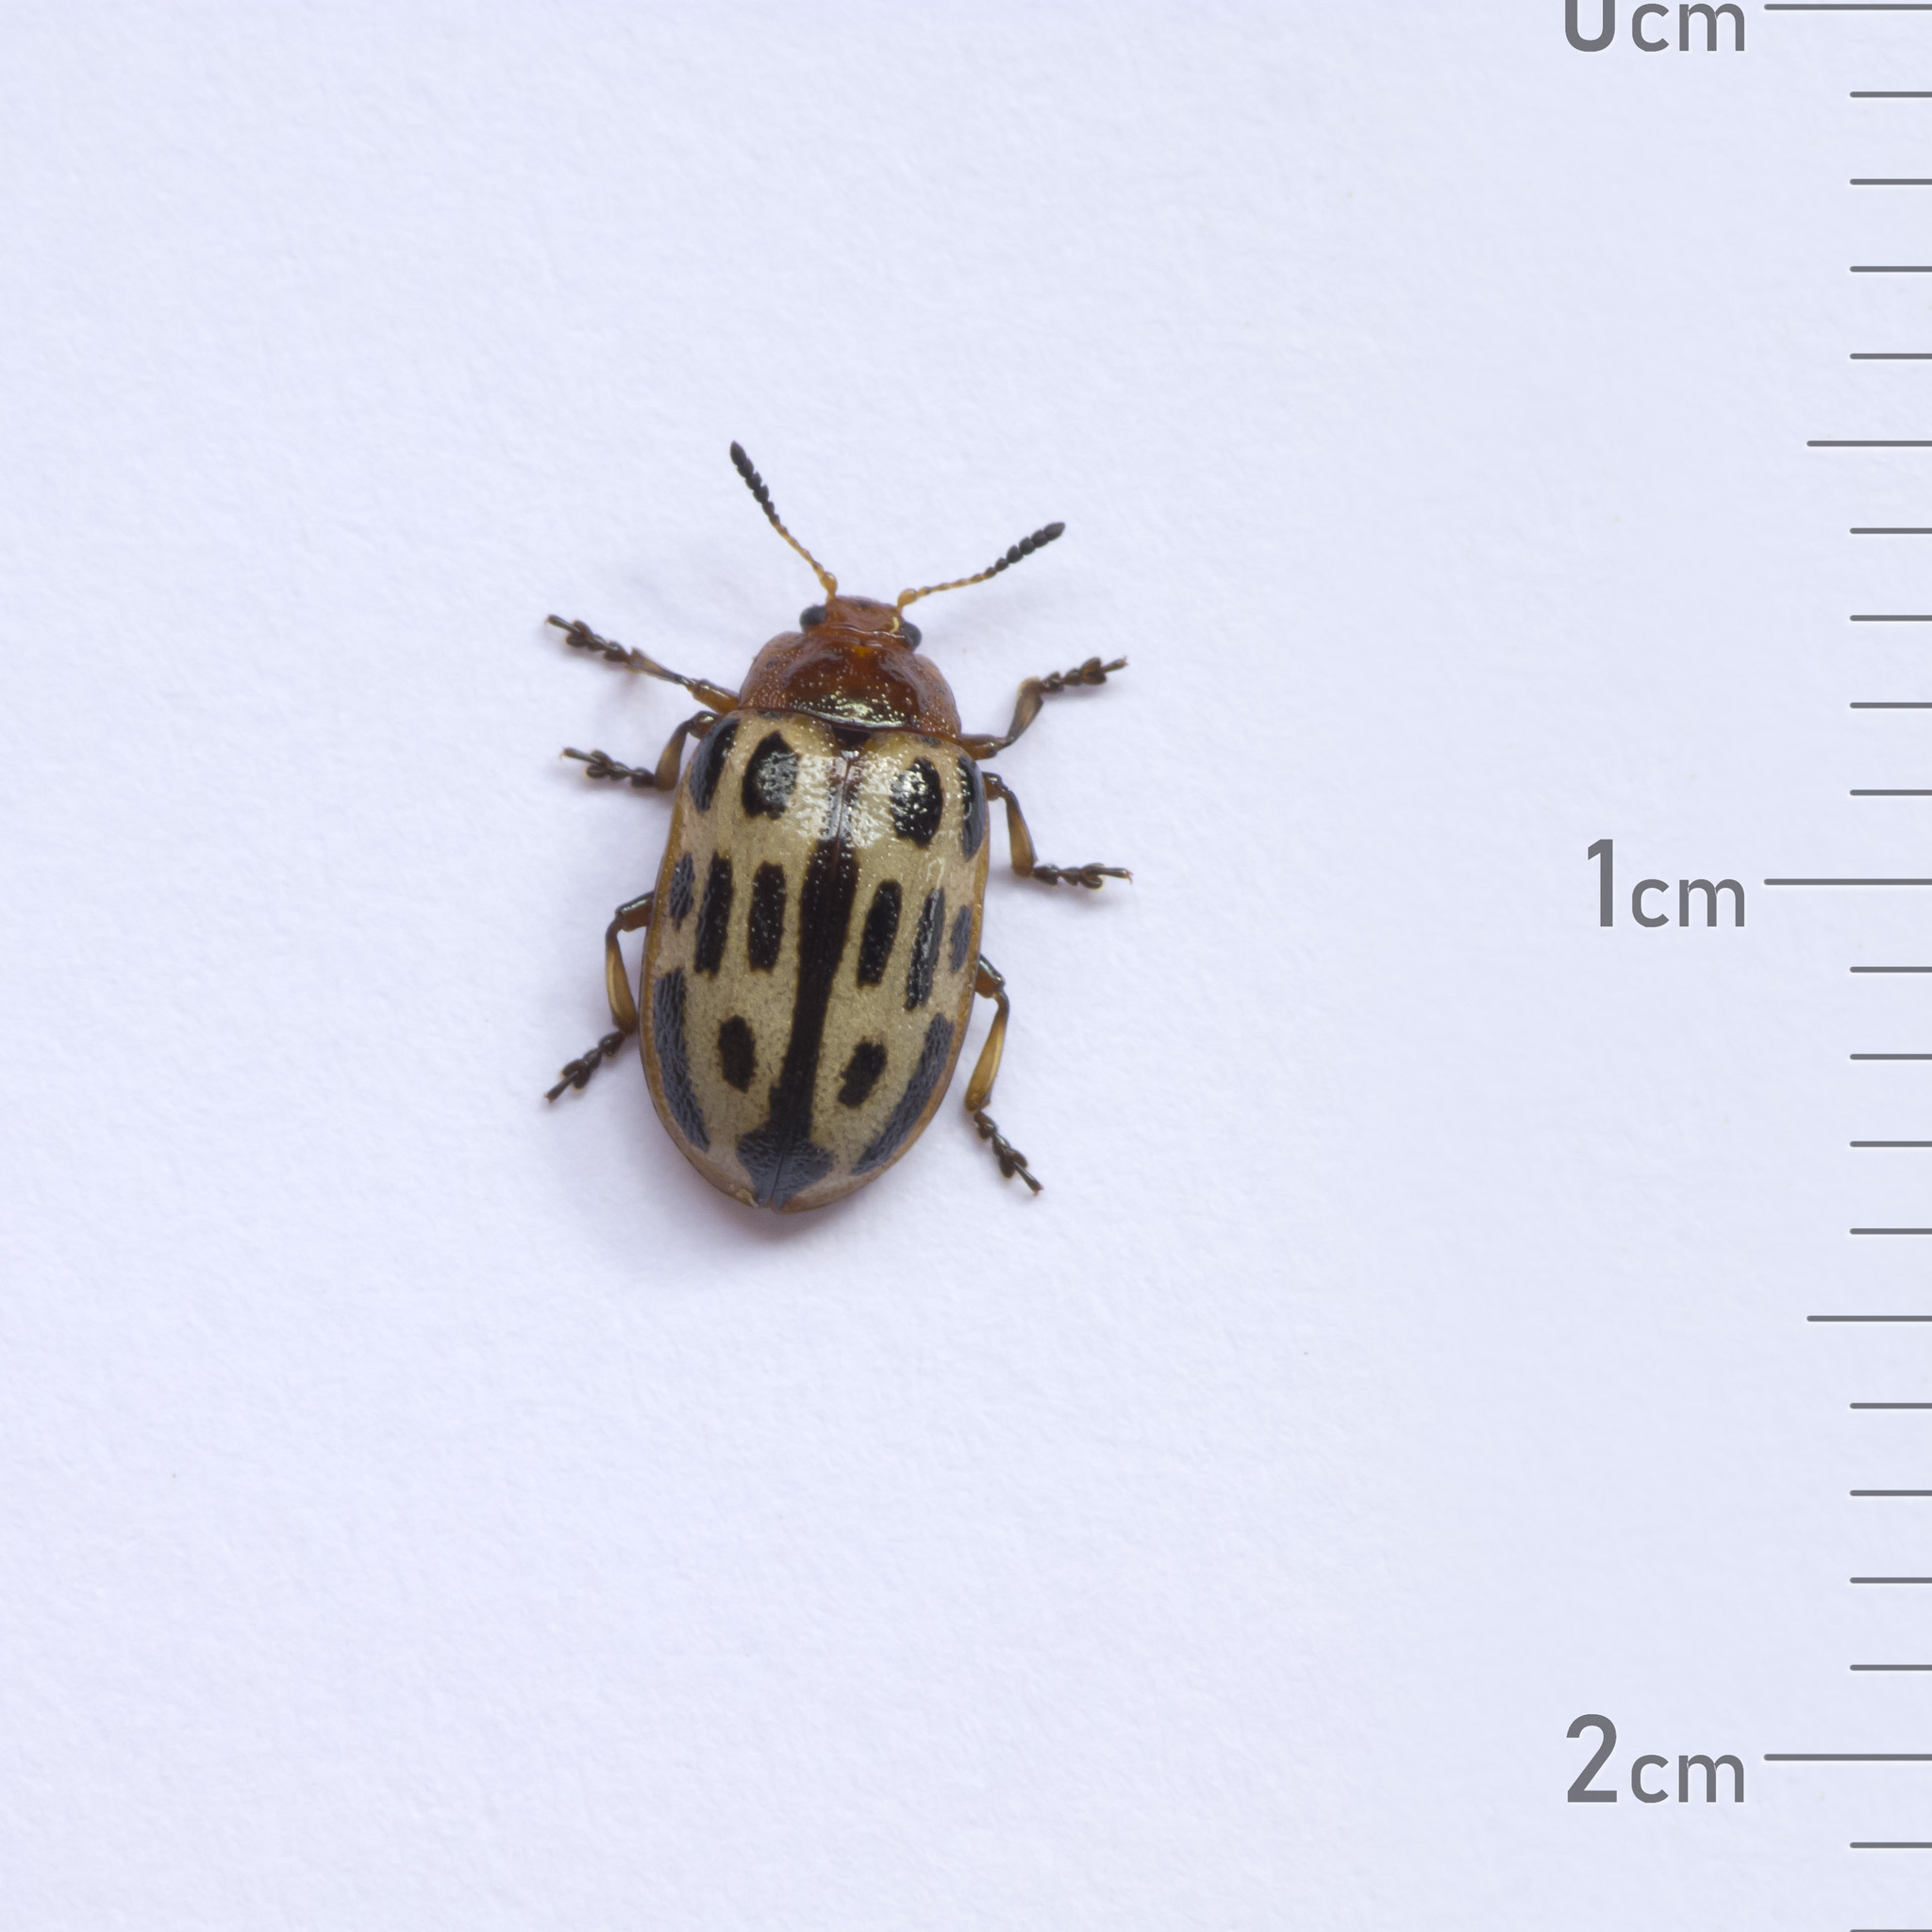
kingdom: Animalia
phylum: Arthropoda
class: Insecta
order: Coleoptera
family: Chrysomelidae
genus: Chrysomela
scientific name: Chrysomela texana
